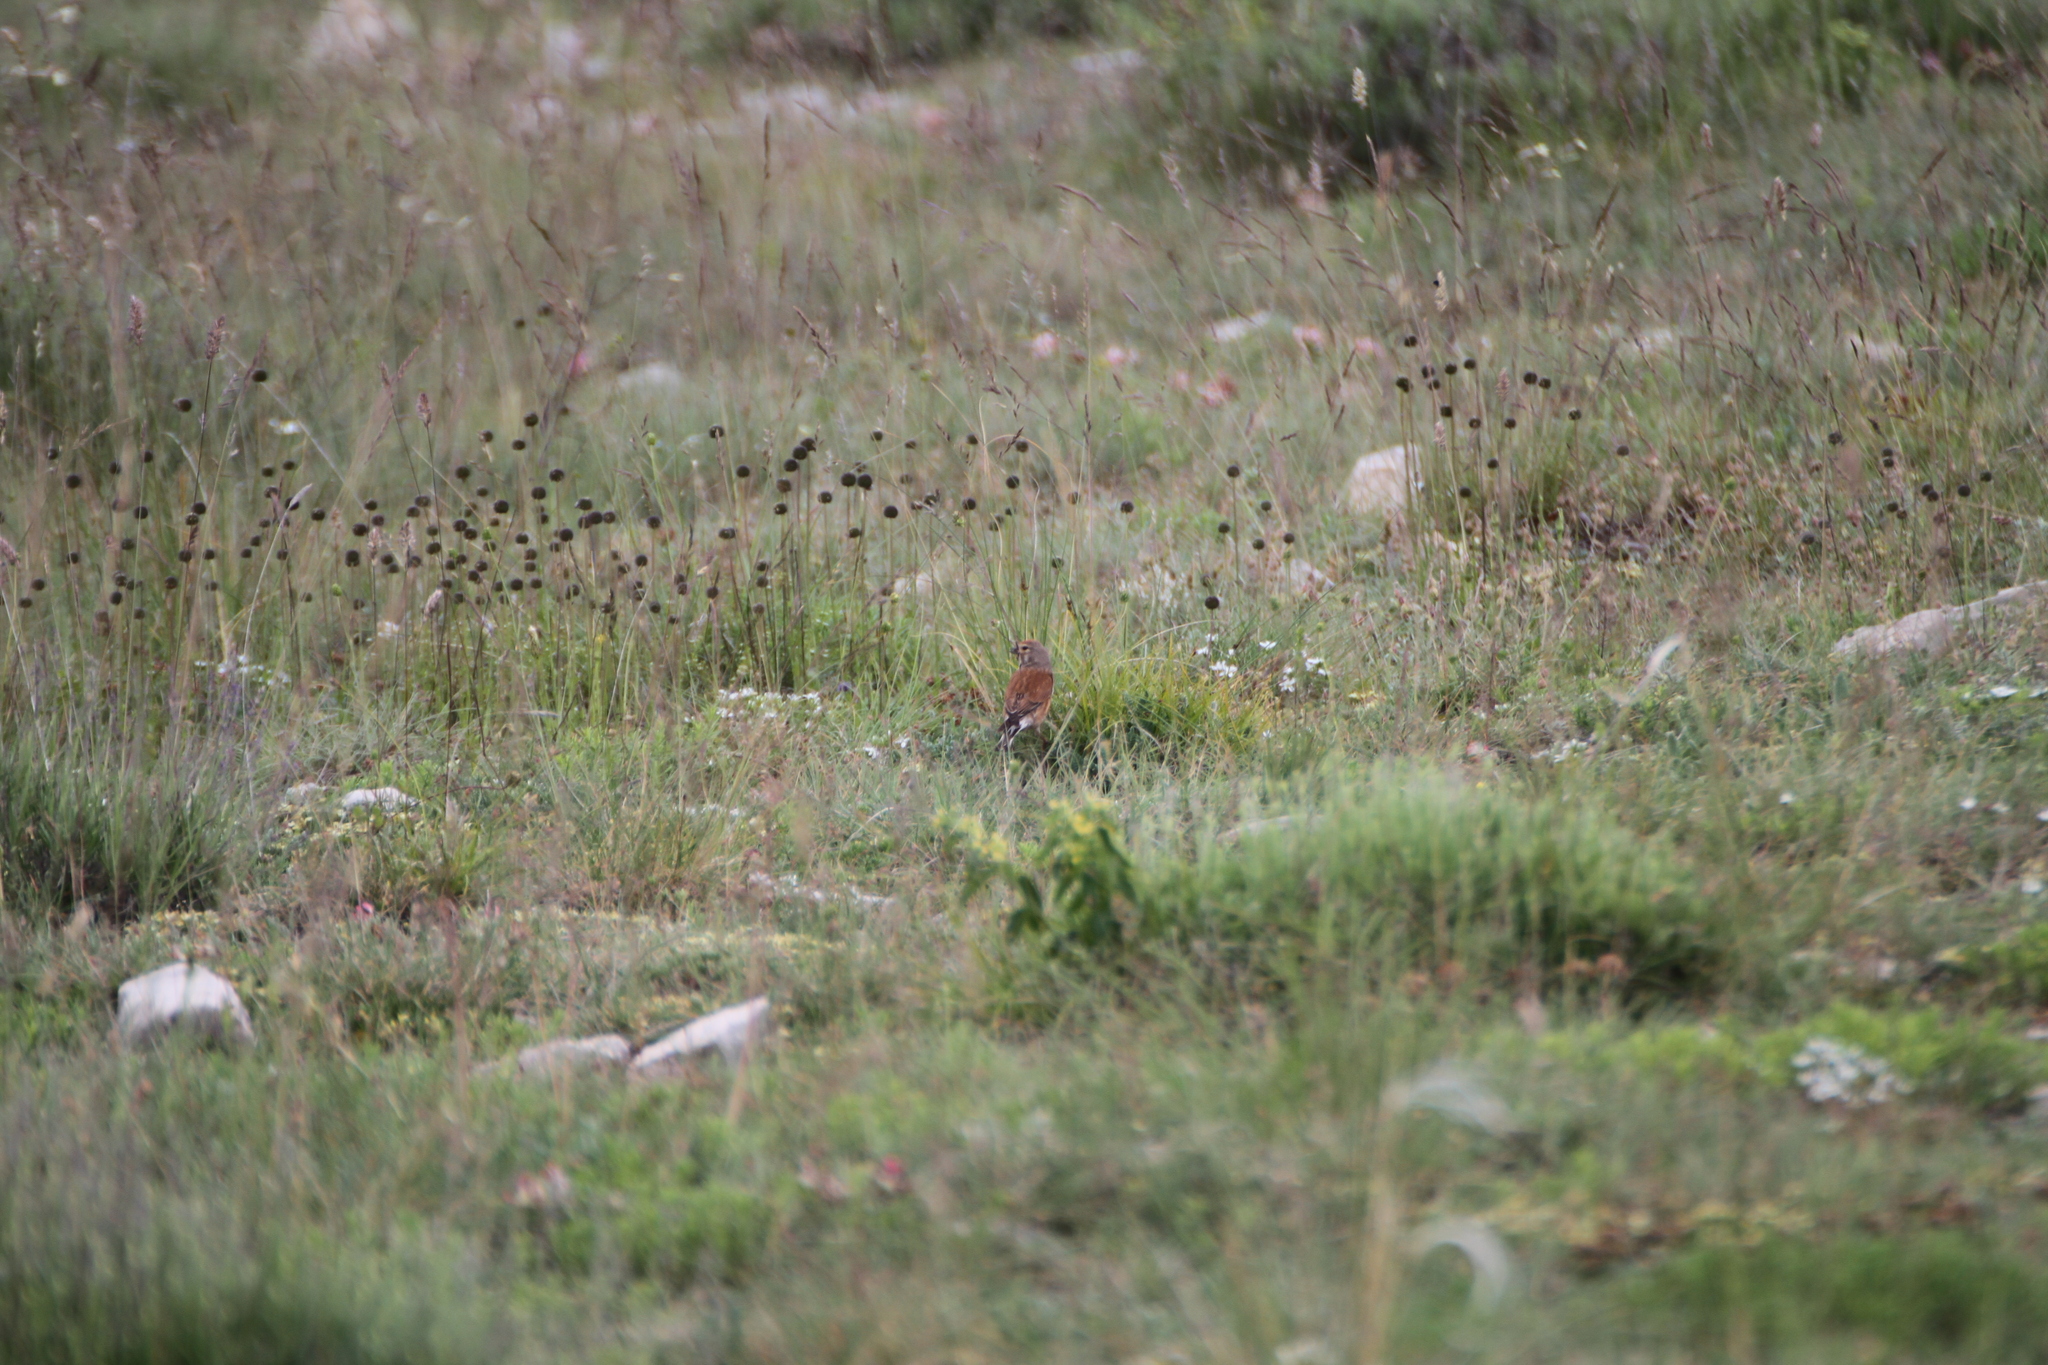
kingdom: Animalia
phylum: Chordata
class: Aves
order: Passeriformes
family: Fringillidae
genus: Linaria
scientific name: Linaria cannabina
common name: Common linnet
